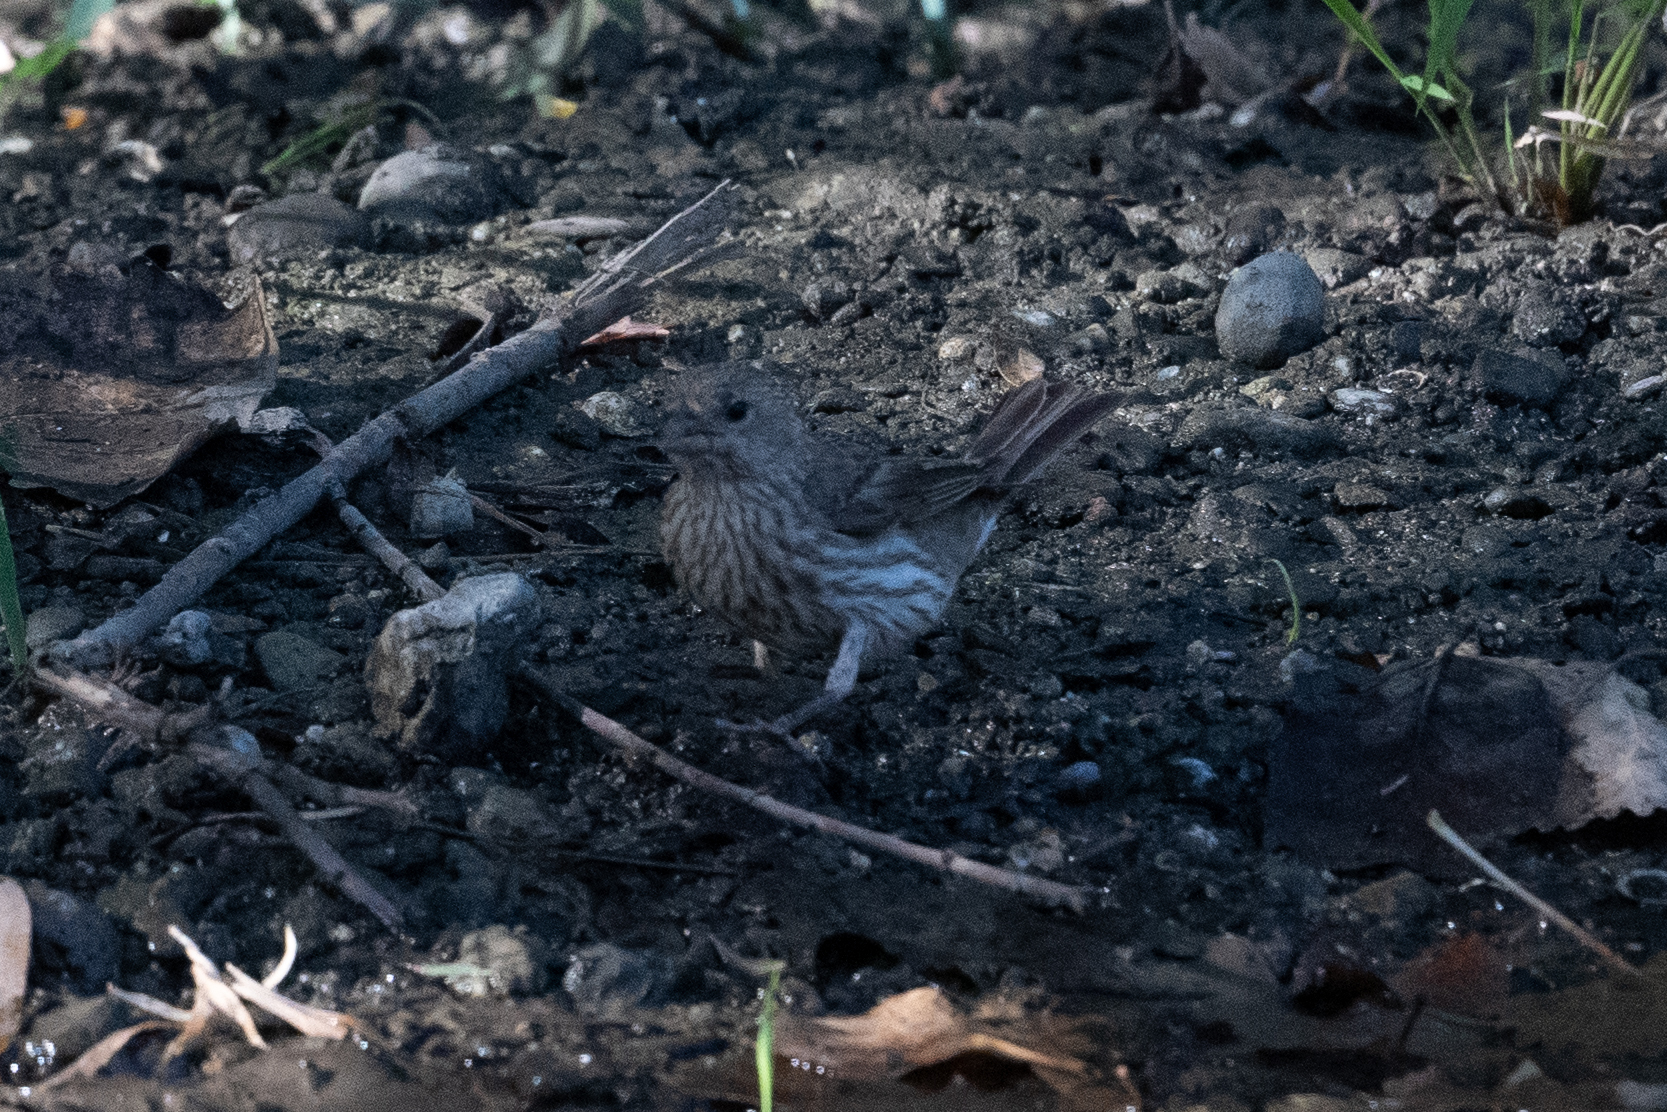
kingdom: Animalia
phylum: Chordata
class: Aves
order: Passeriformes
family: Fringillidae
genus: Haemorhous
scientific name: Haemorhous mexicanus
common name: House finch
